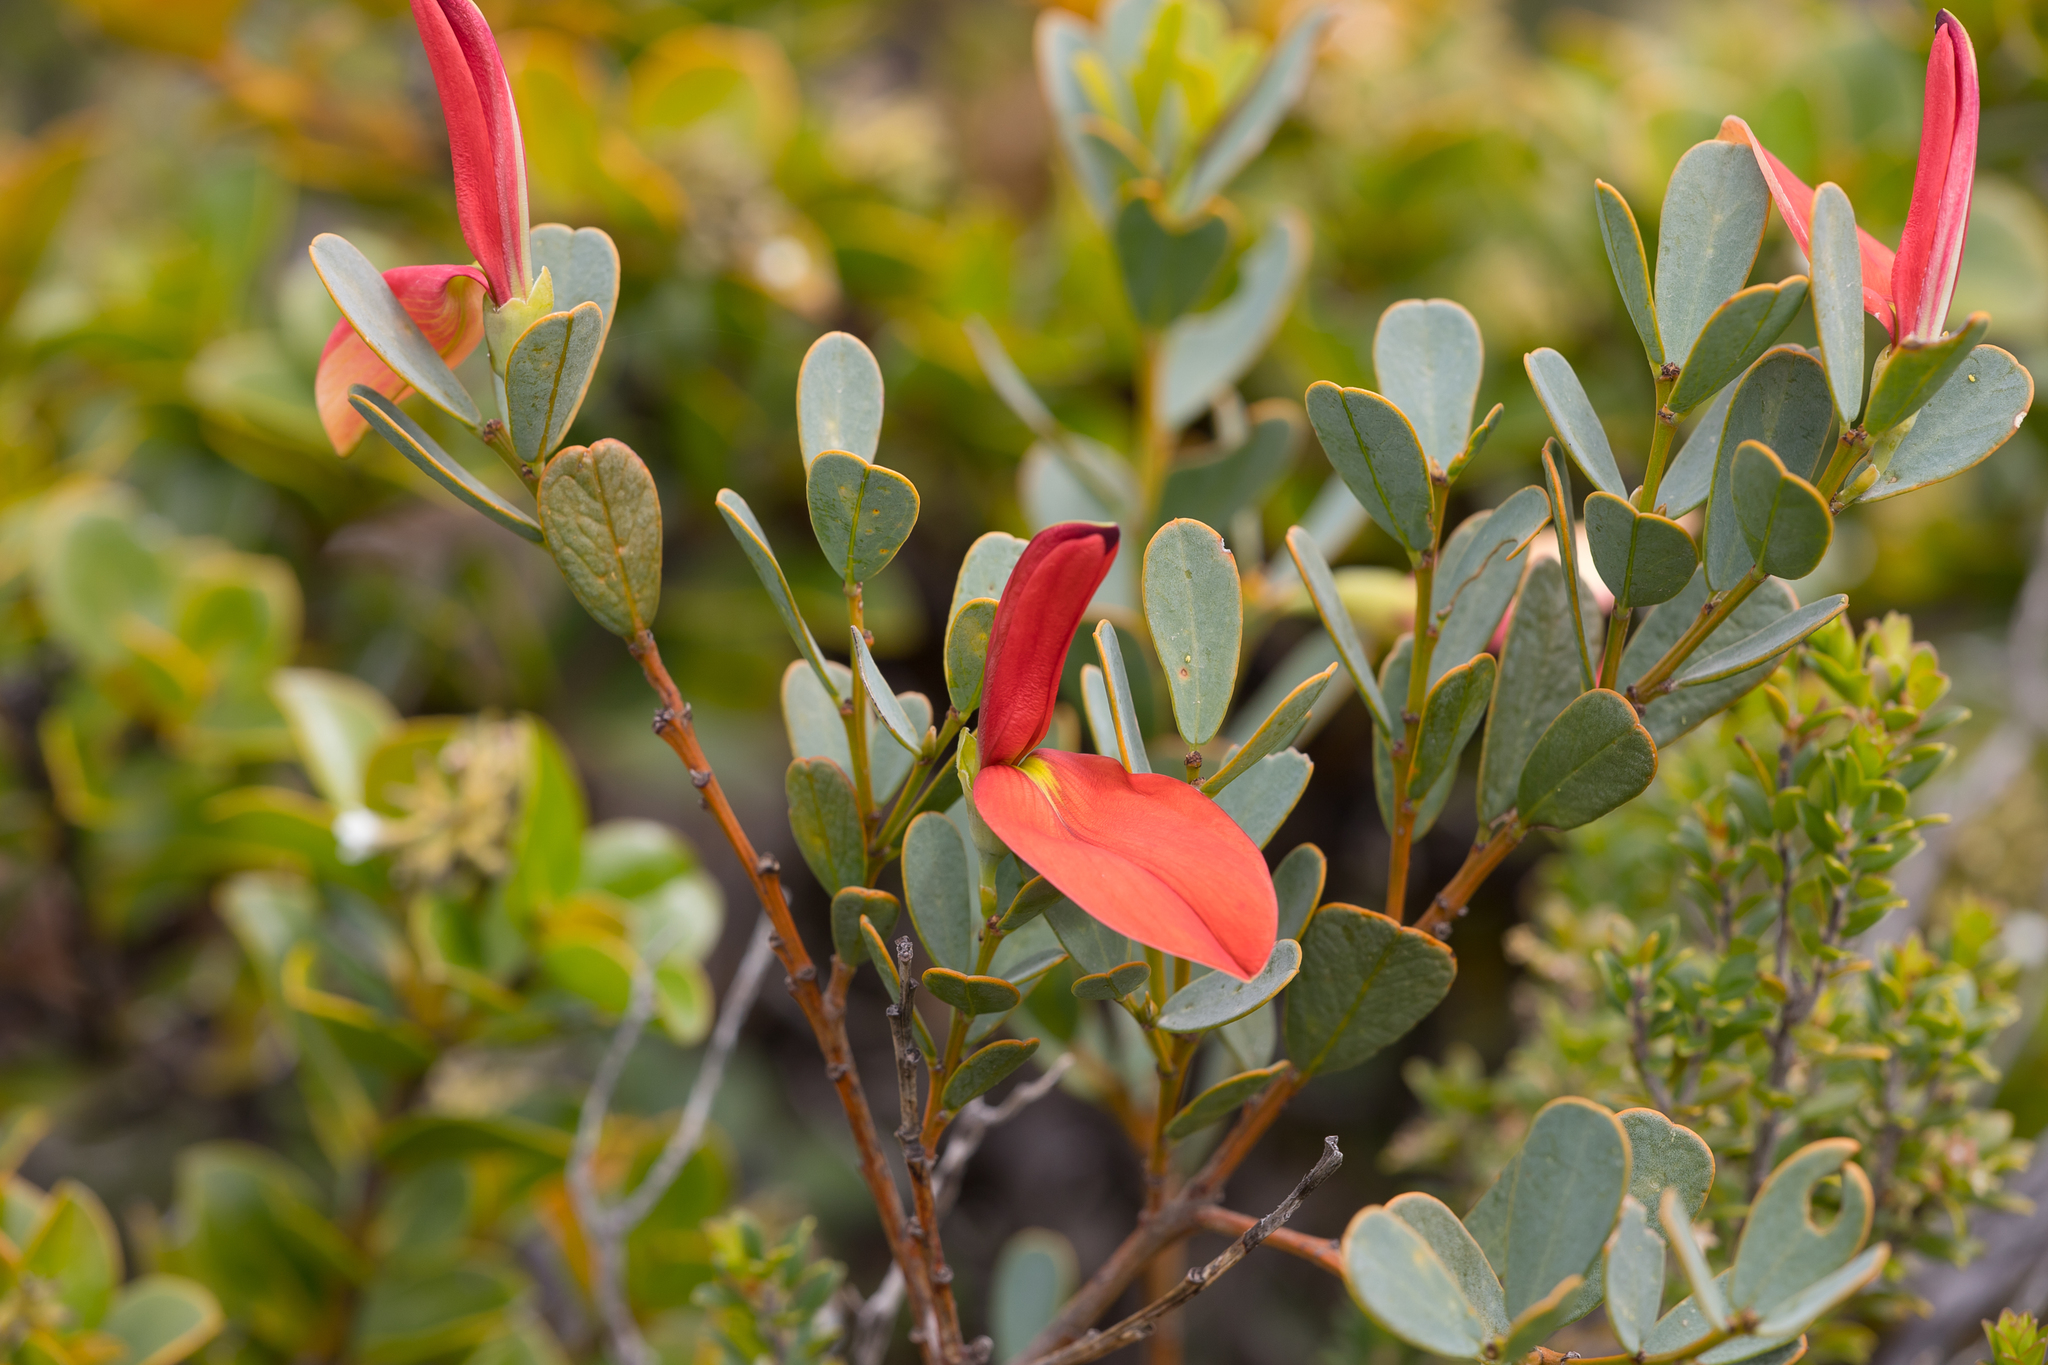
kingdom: Plantae
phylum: Tracheophyta
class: Magnoliopsida
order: Fabales
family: Fabaceae
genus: Templetonia
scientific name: Templetonia retusa
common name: Cockies'-tongue
